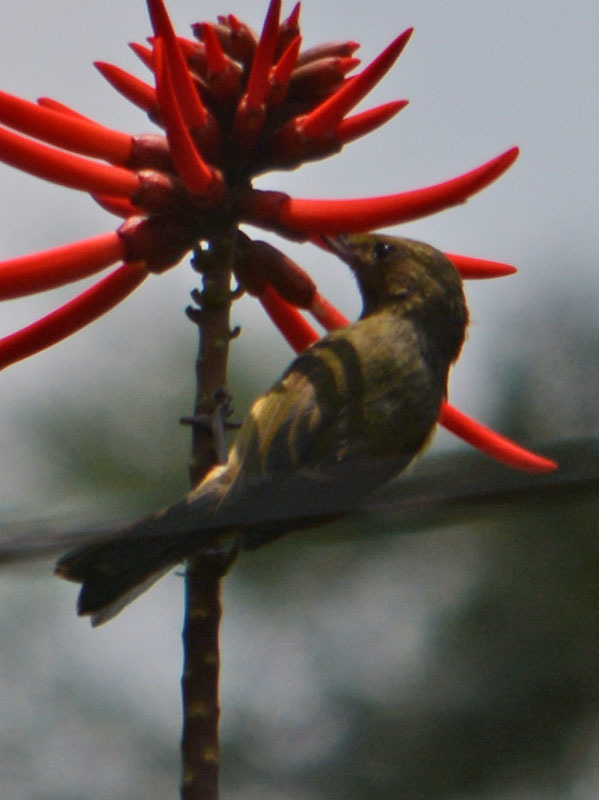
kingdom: Animalia
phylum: Chordata
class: Aves
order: Passeriformes
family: Thraupidae
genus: Diglossa
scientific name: Diglossa baritula
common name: Cinnamon-bellied flowerpiercer
